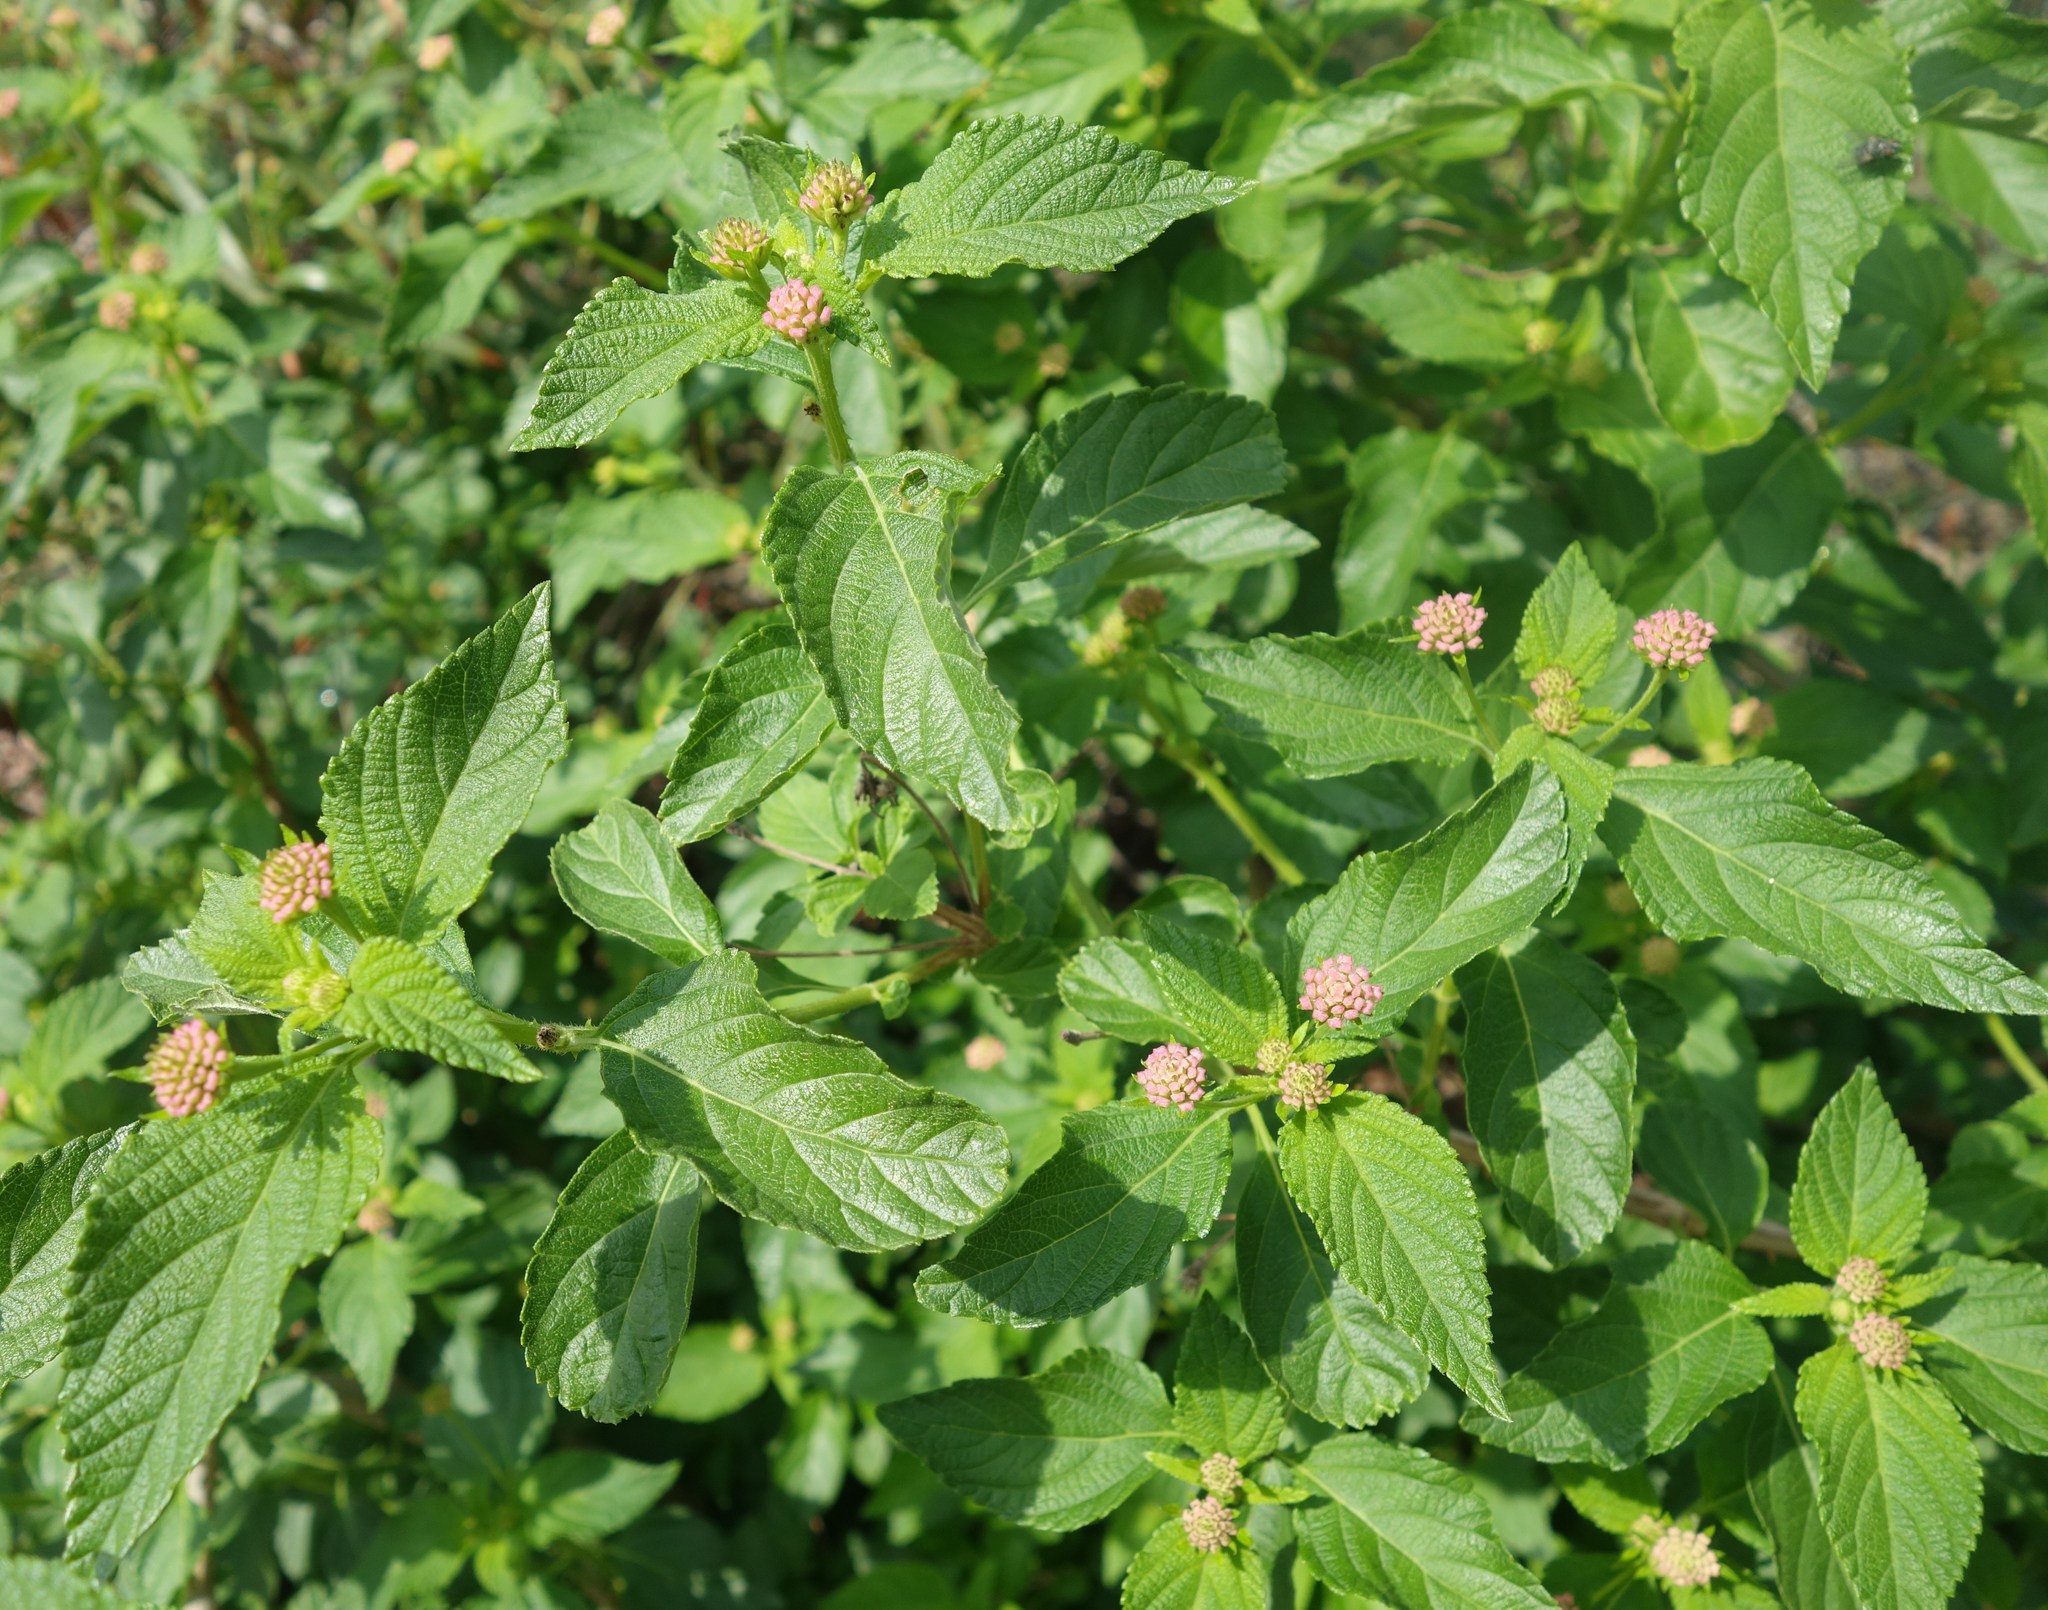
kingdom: Plantae
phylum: Tracheophyta
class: Magnoliopsida
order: Lamiales
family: Verbenaceae
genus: Lantana
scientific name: Lantana camara
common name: Lantana
